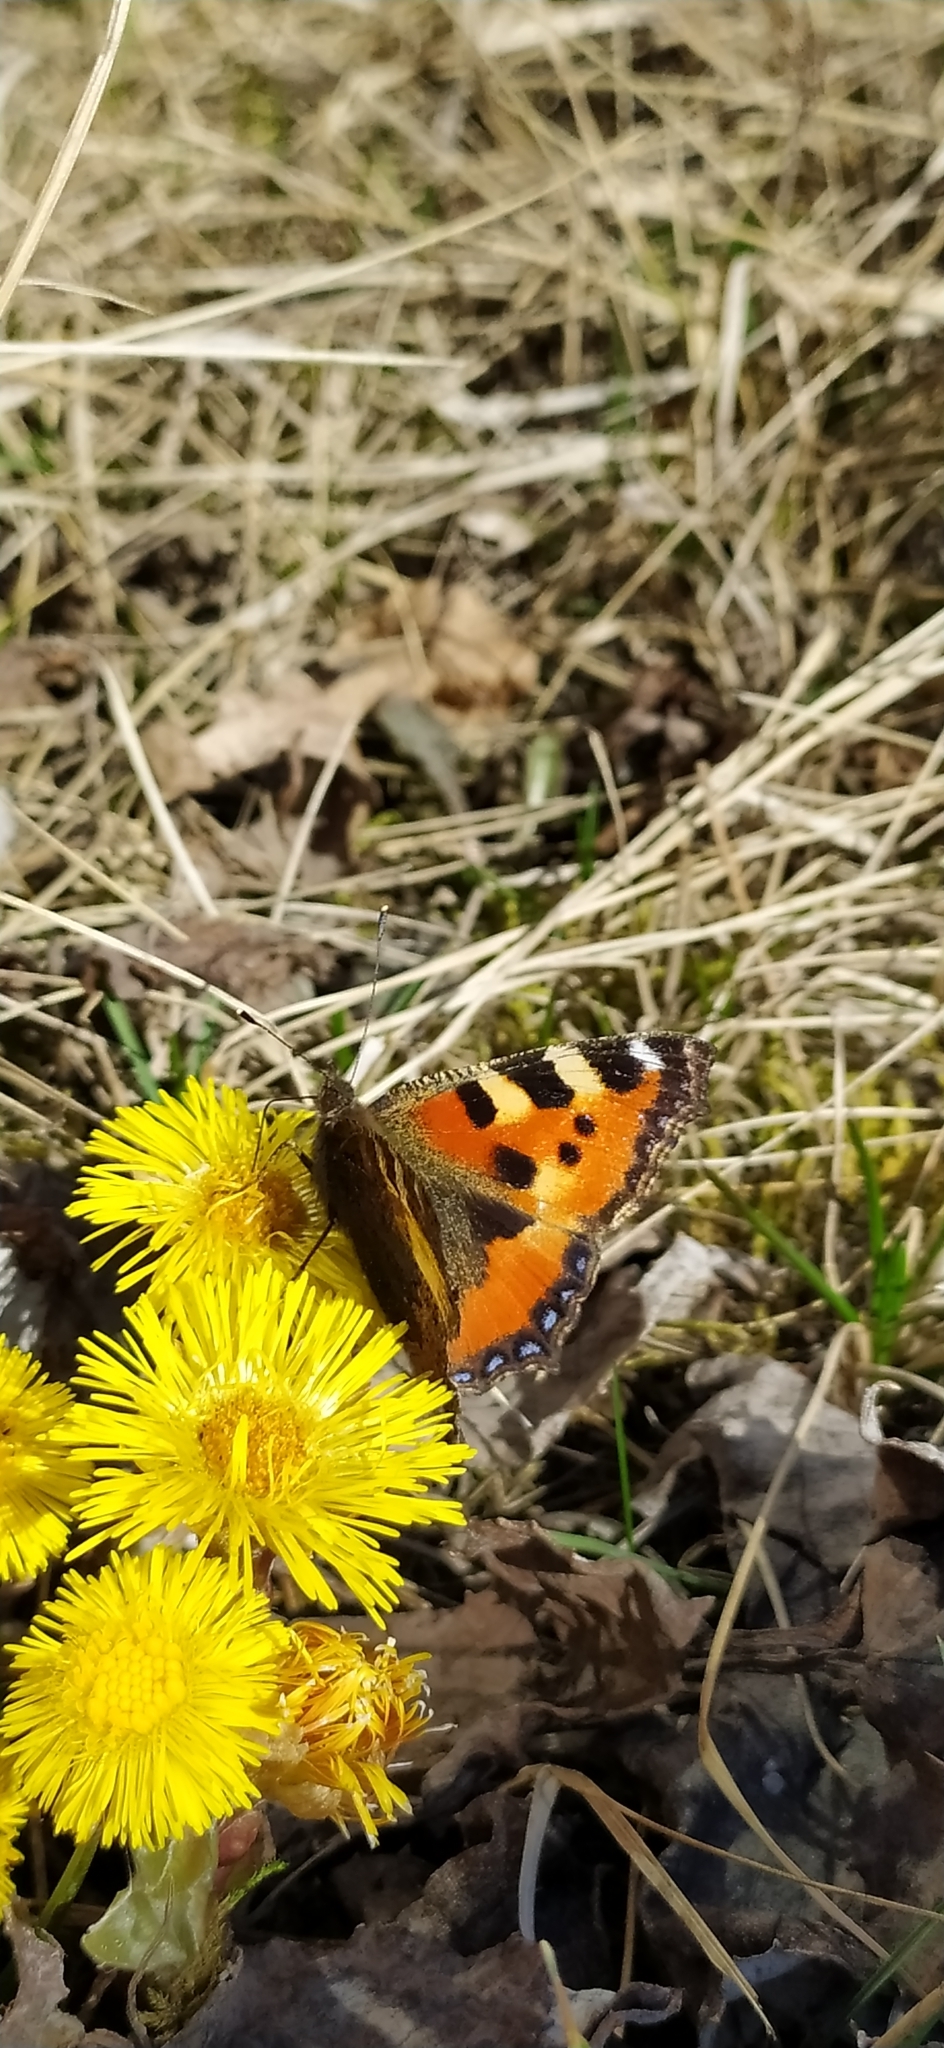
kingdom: Animalia
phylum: Arthropoda
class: Insecta
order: Lepidoptera
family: Nymphalidae
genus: Aglais
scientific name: Aglais urticae
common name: Small tortoiseshell
